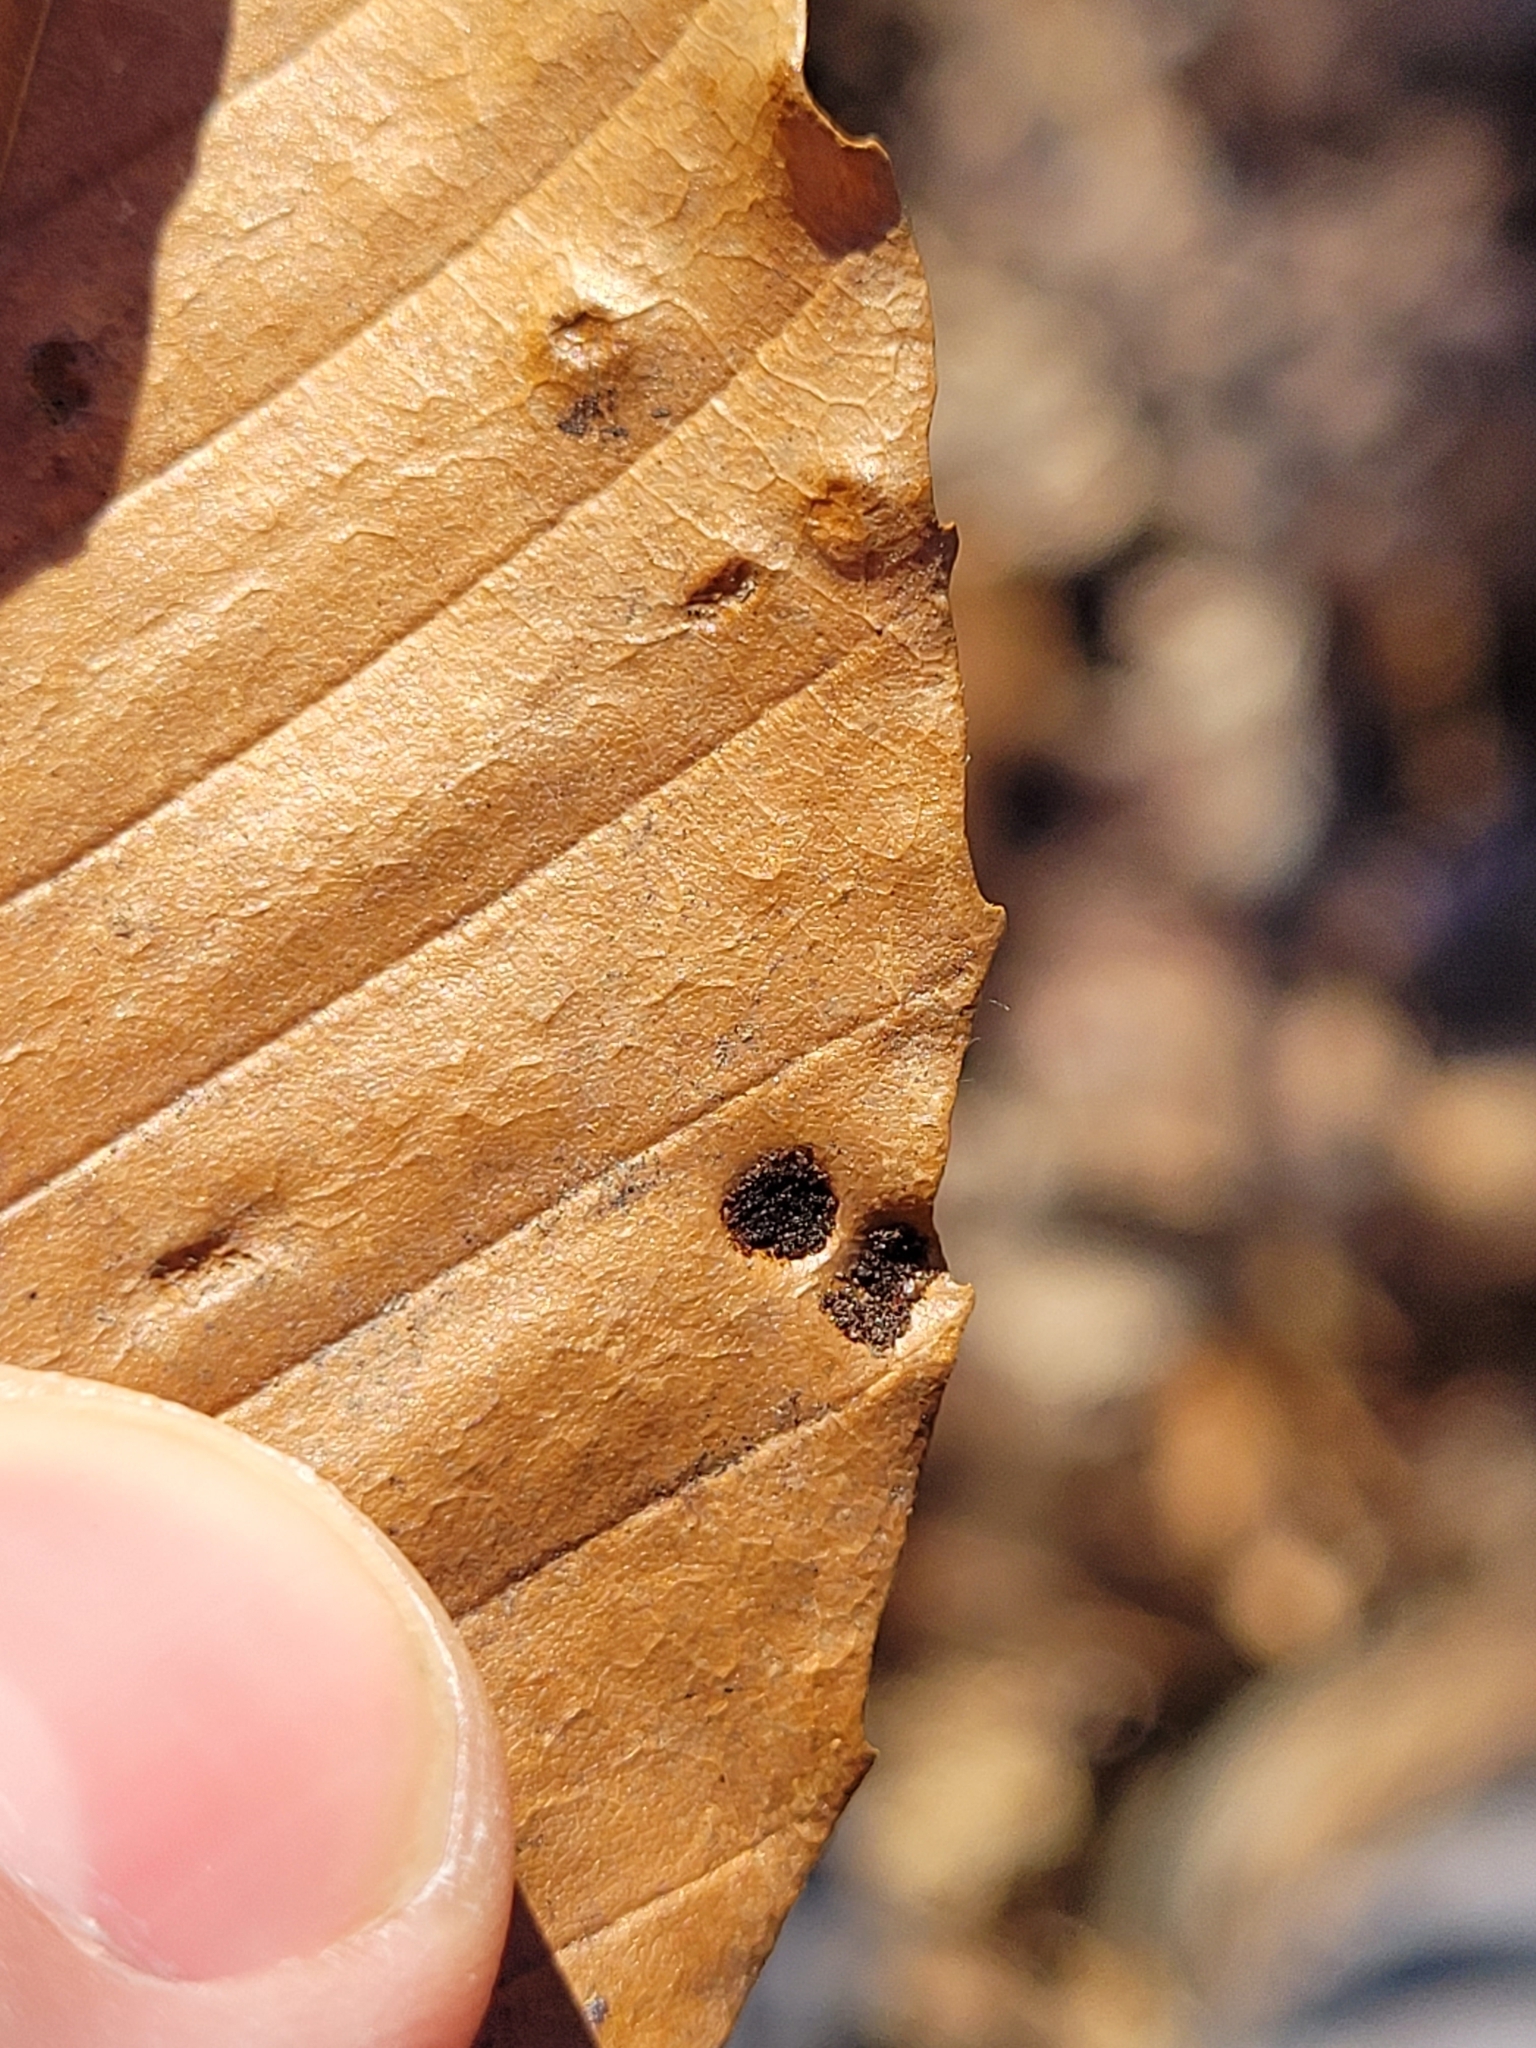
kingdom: Animalia
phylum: Arthropoda
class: Arachnida
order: Trombidiformes
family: Eriophyidae
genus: Acalitus
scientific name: Acalitus
